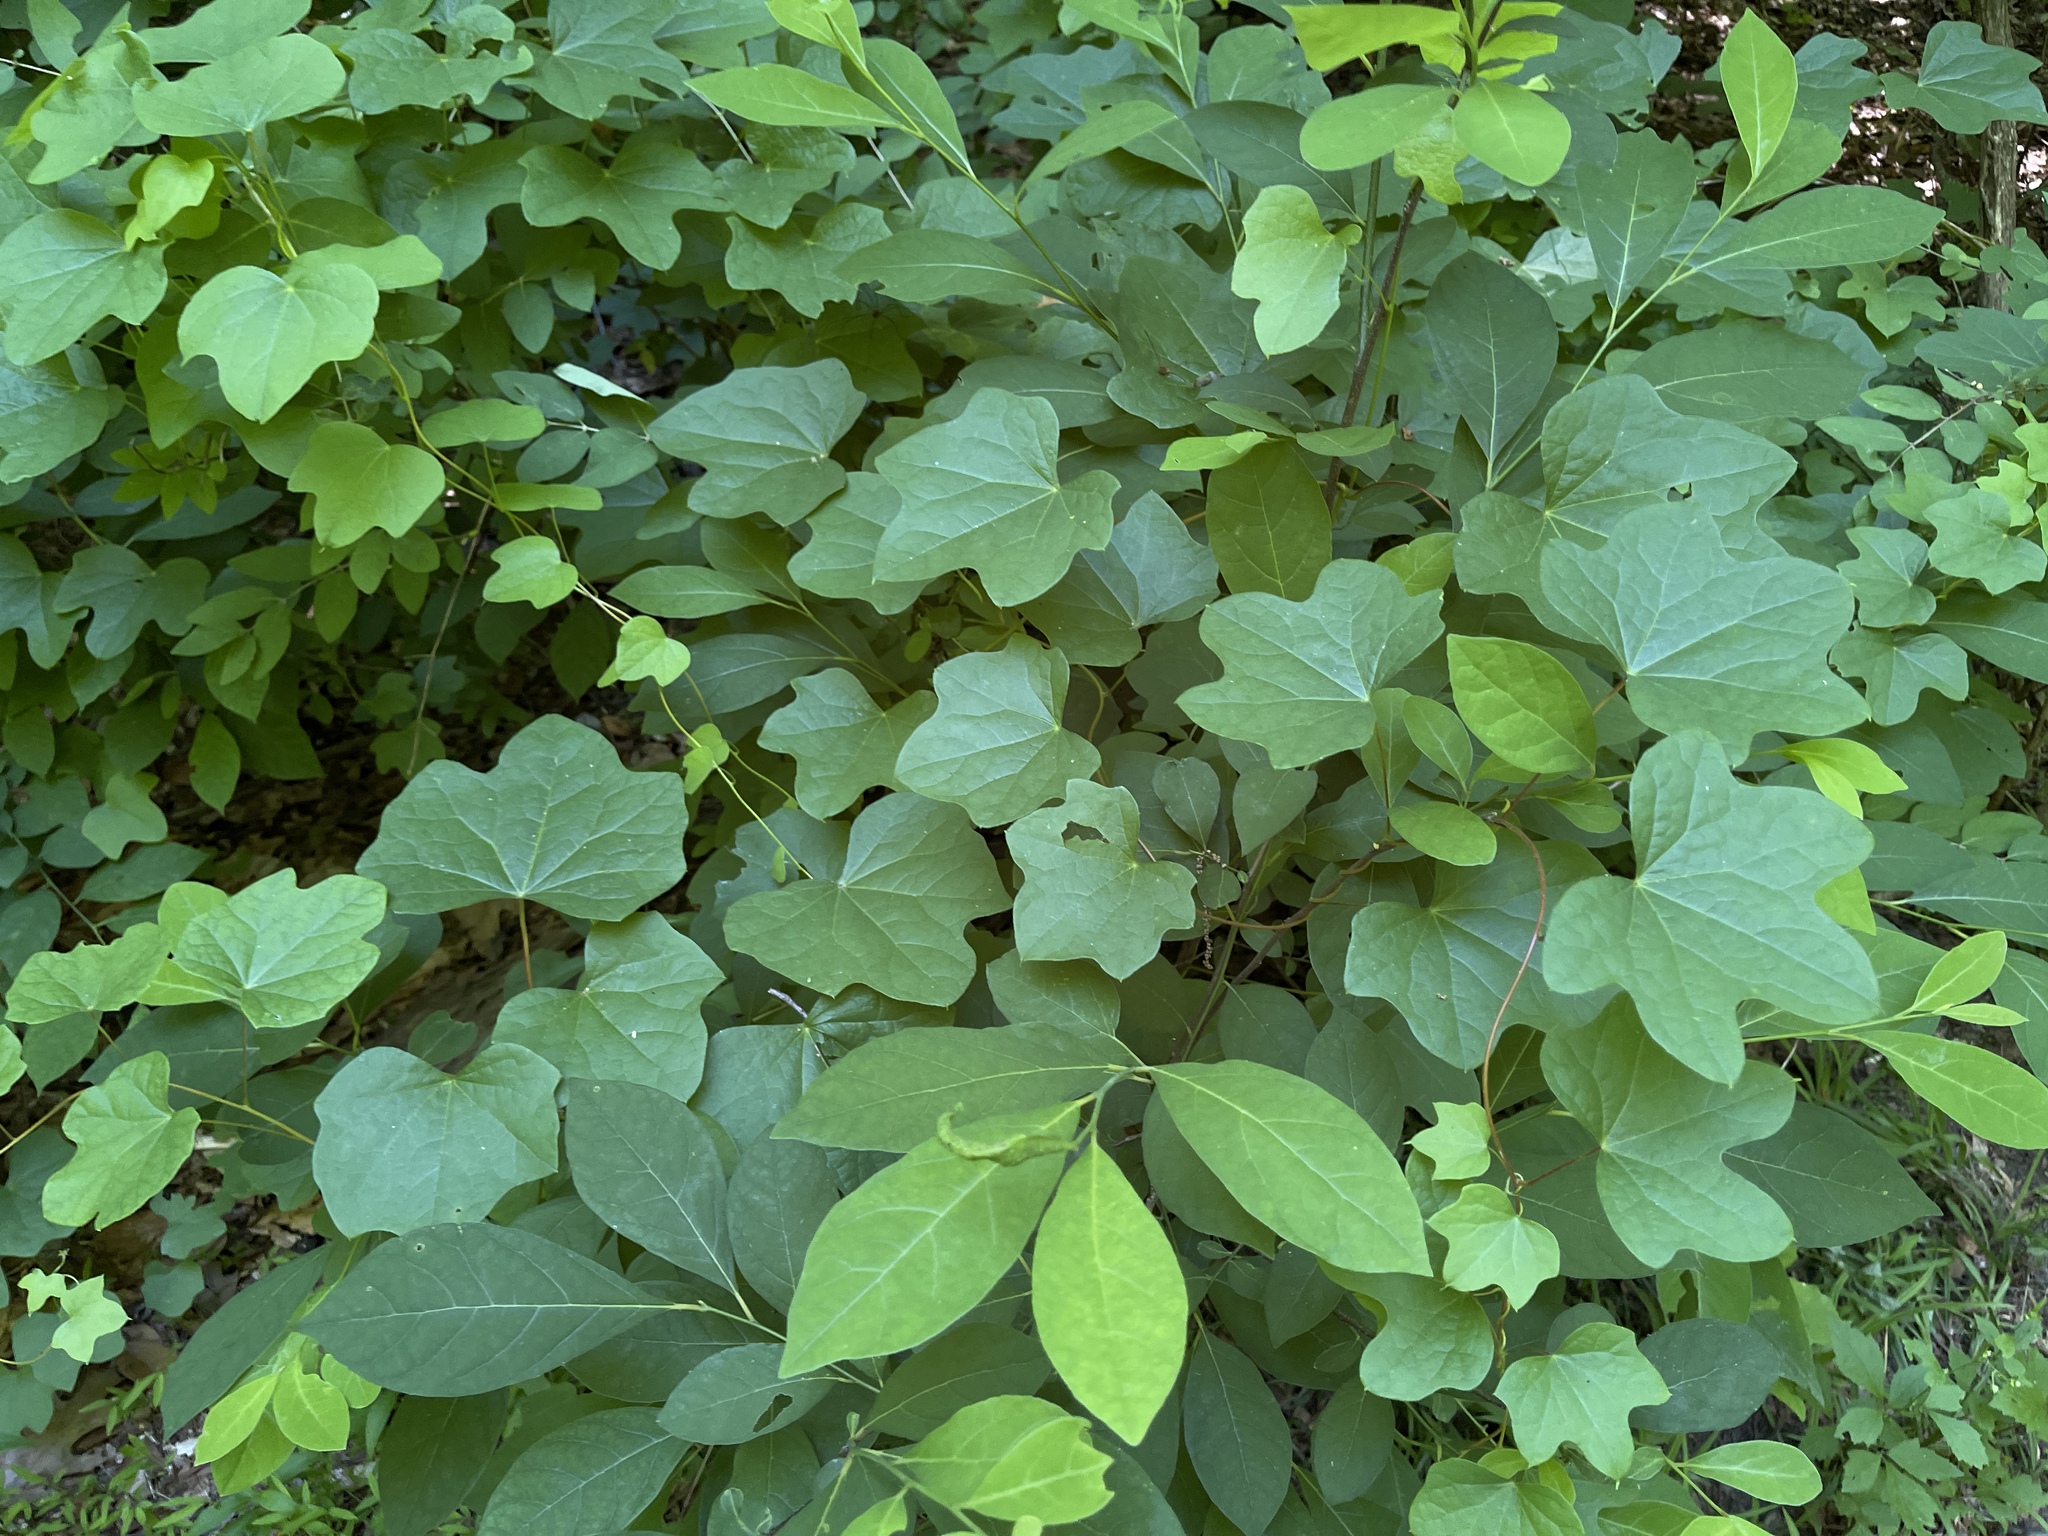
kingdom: Plantae
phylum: Tracheophyta
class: Magnoliopsida
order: Ranunculales
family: Menispermaceae
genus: Menispermum
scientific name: Menispermum canadense
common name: Moonseed
